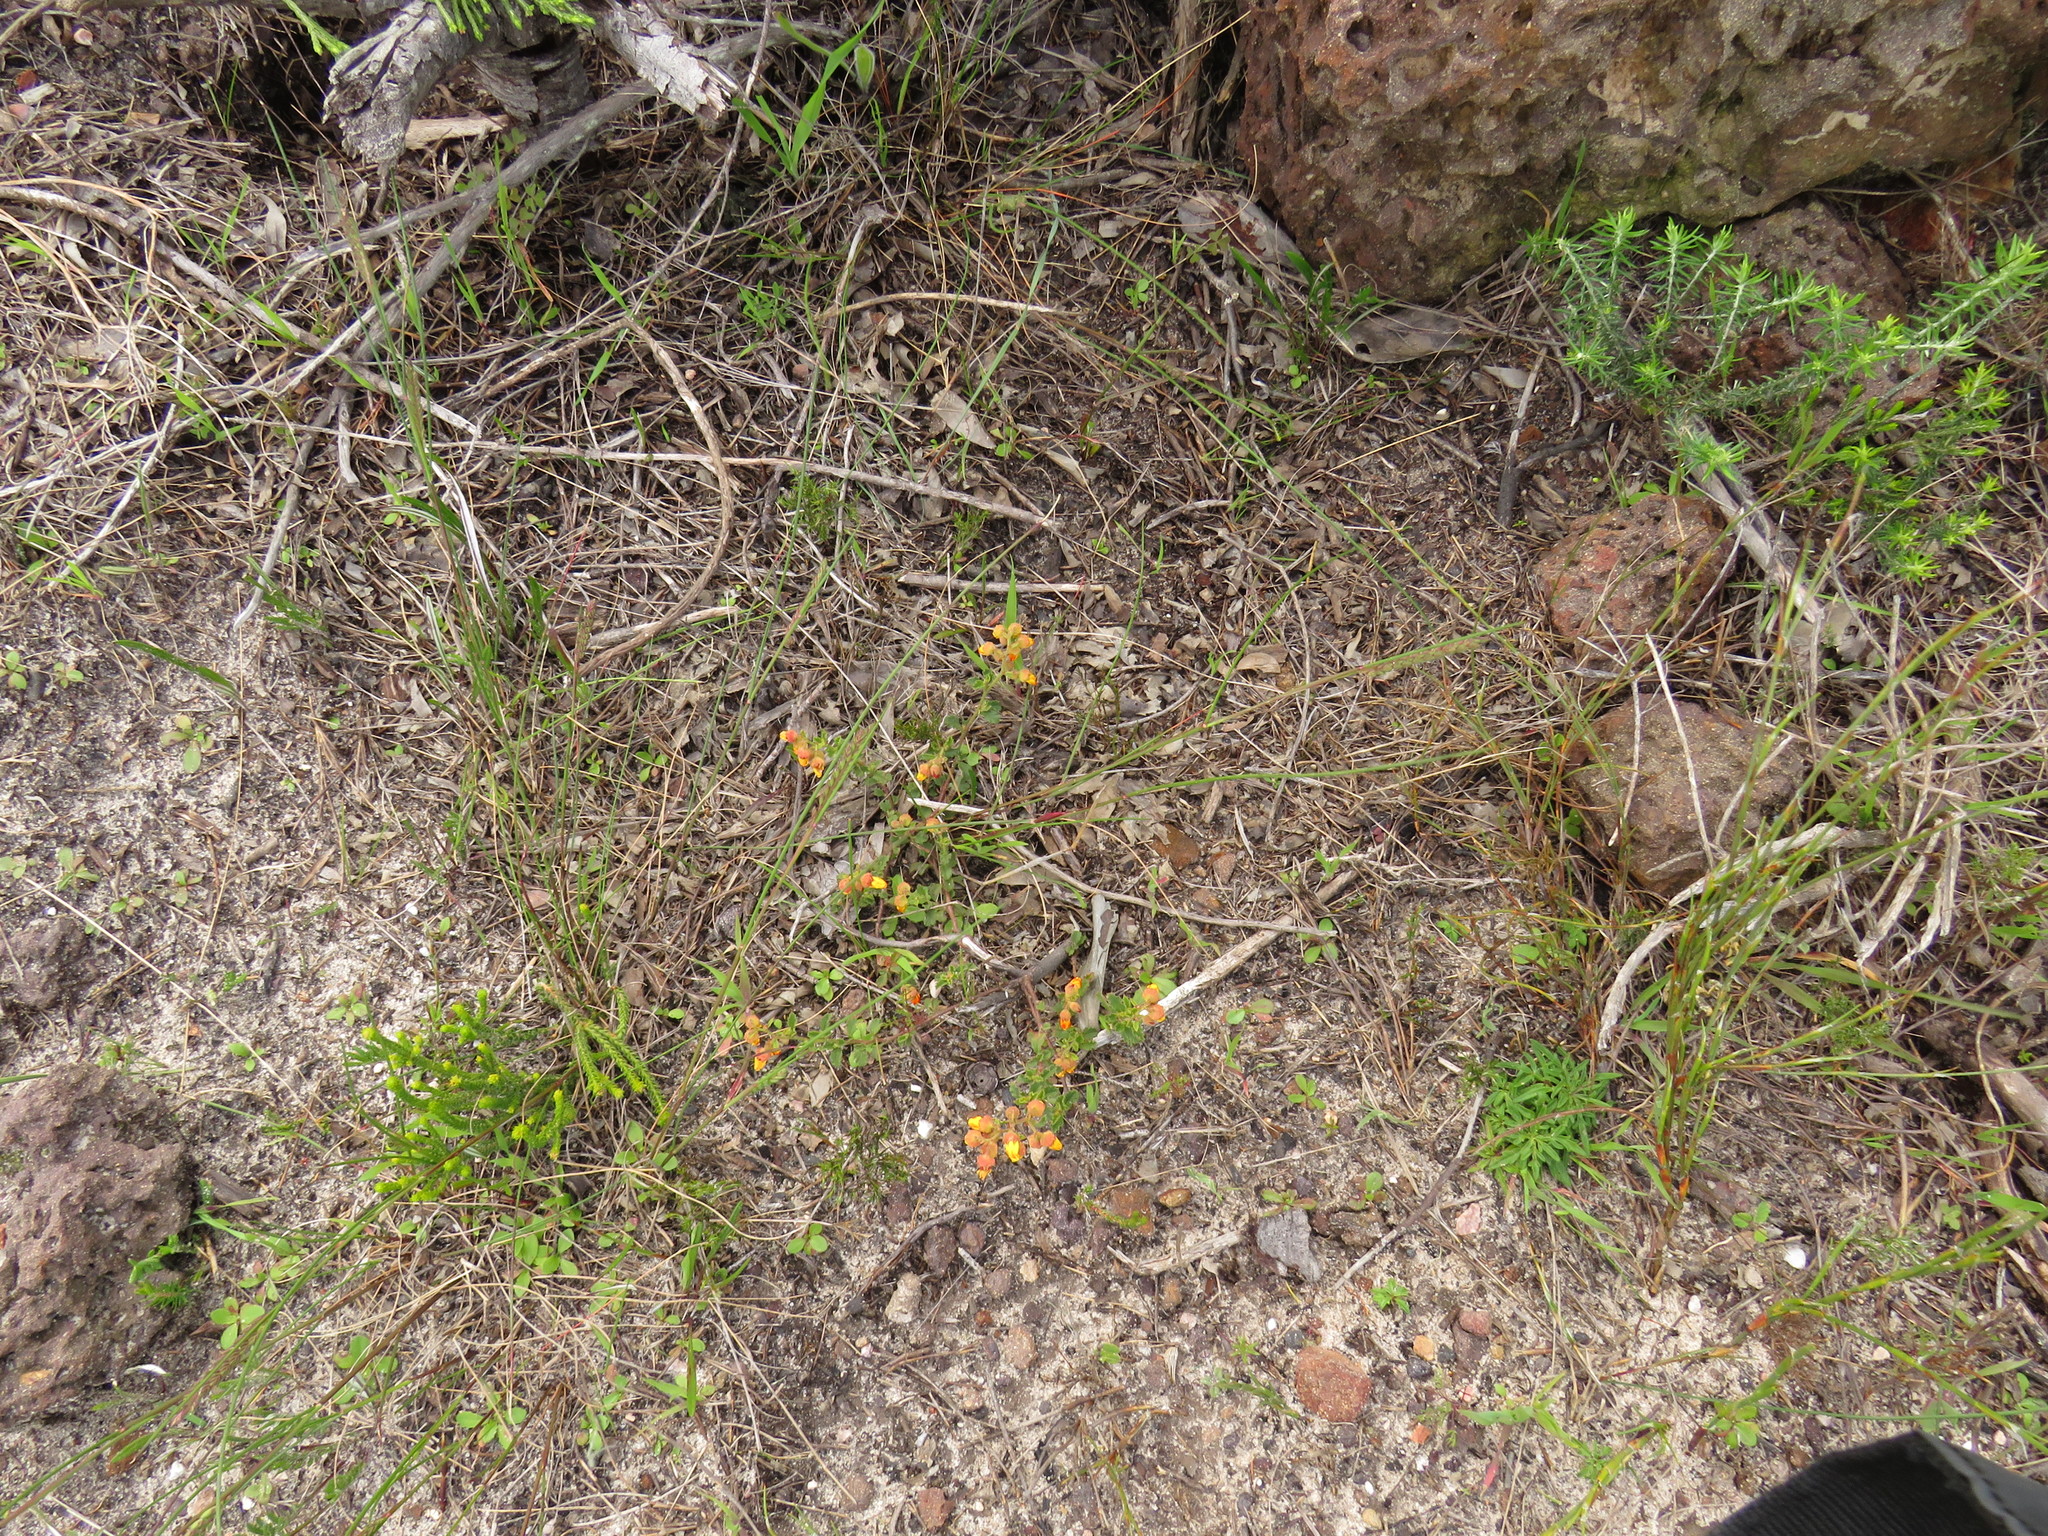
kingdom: Plantae
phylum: Tracheophyta
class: Magnoliopsida
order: Malvales
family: Malvaceae
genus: Hermannia
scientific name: Hermannia multiflora
